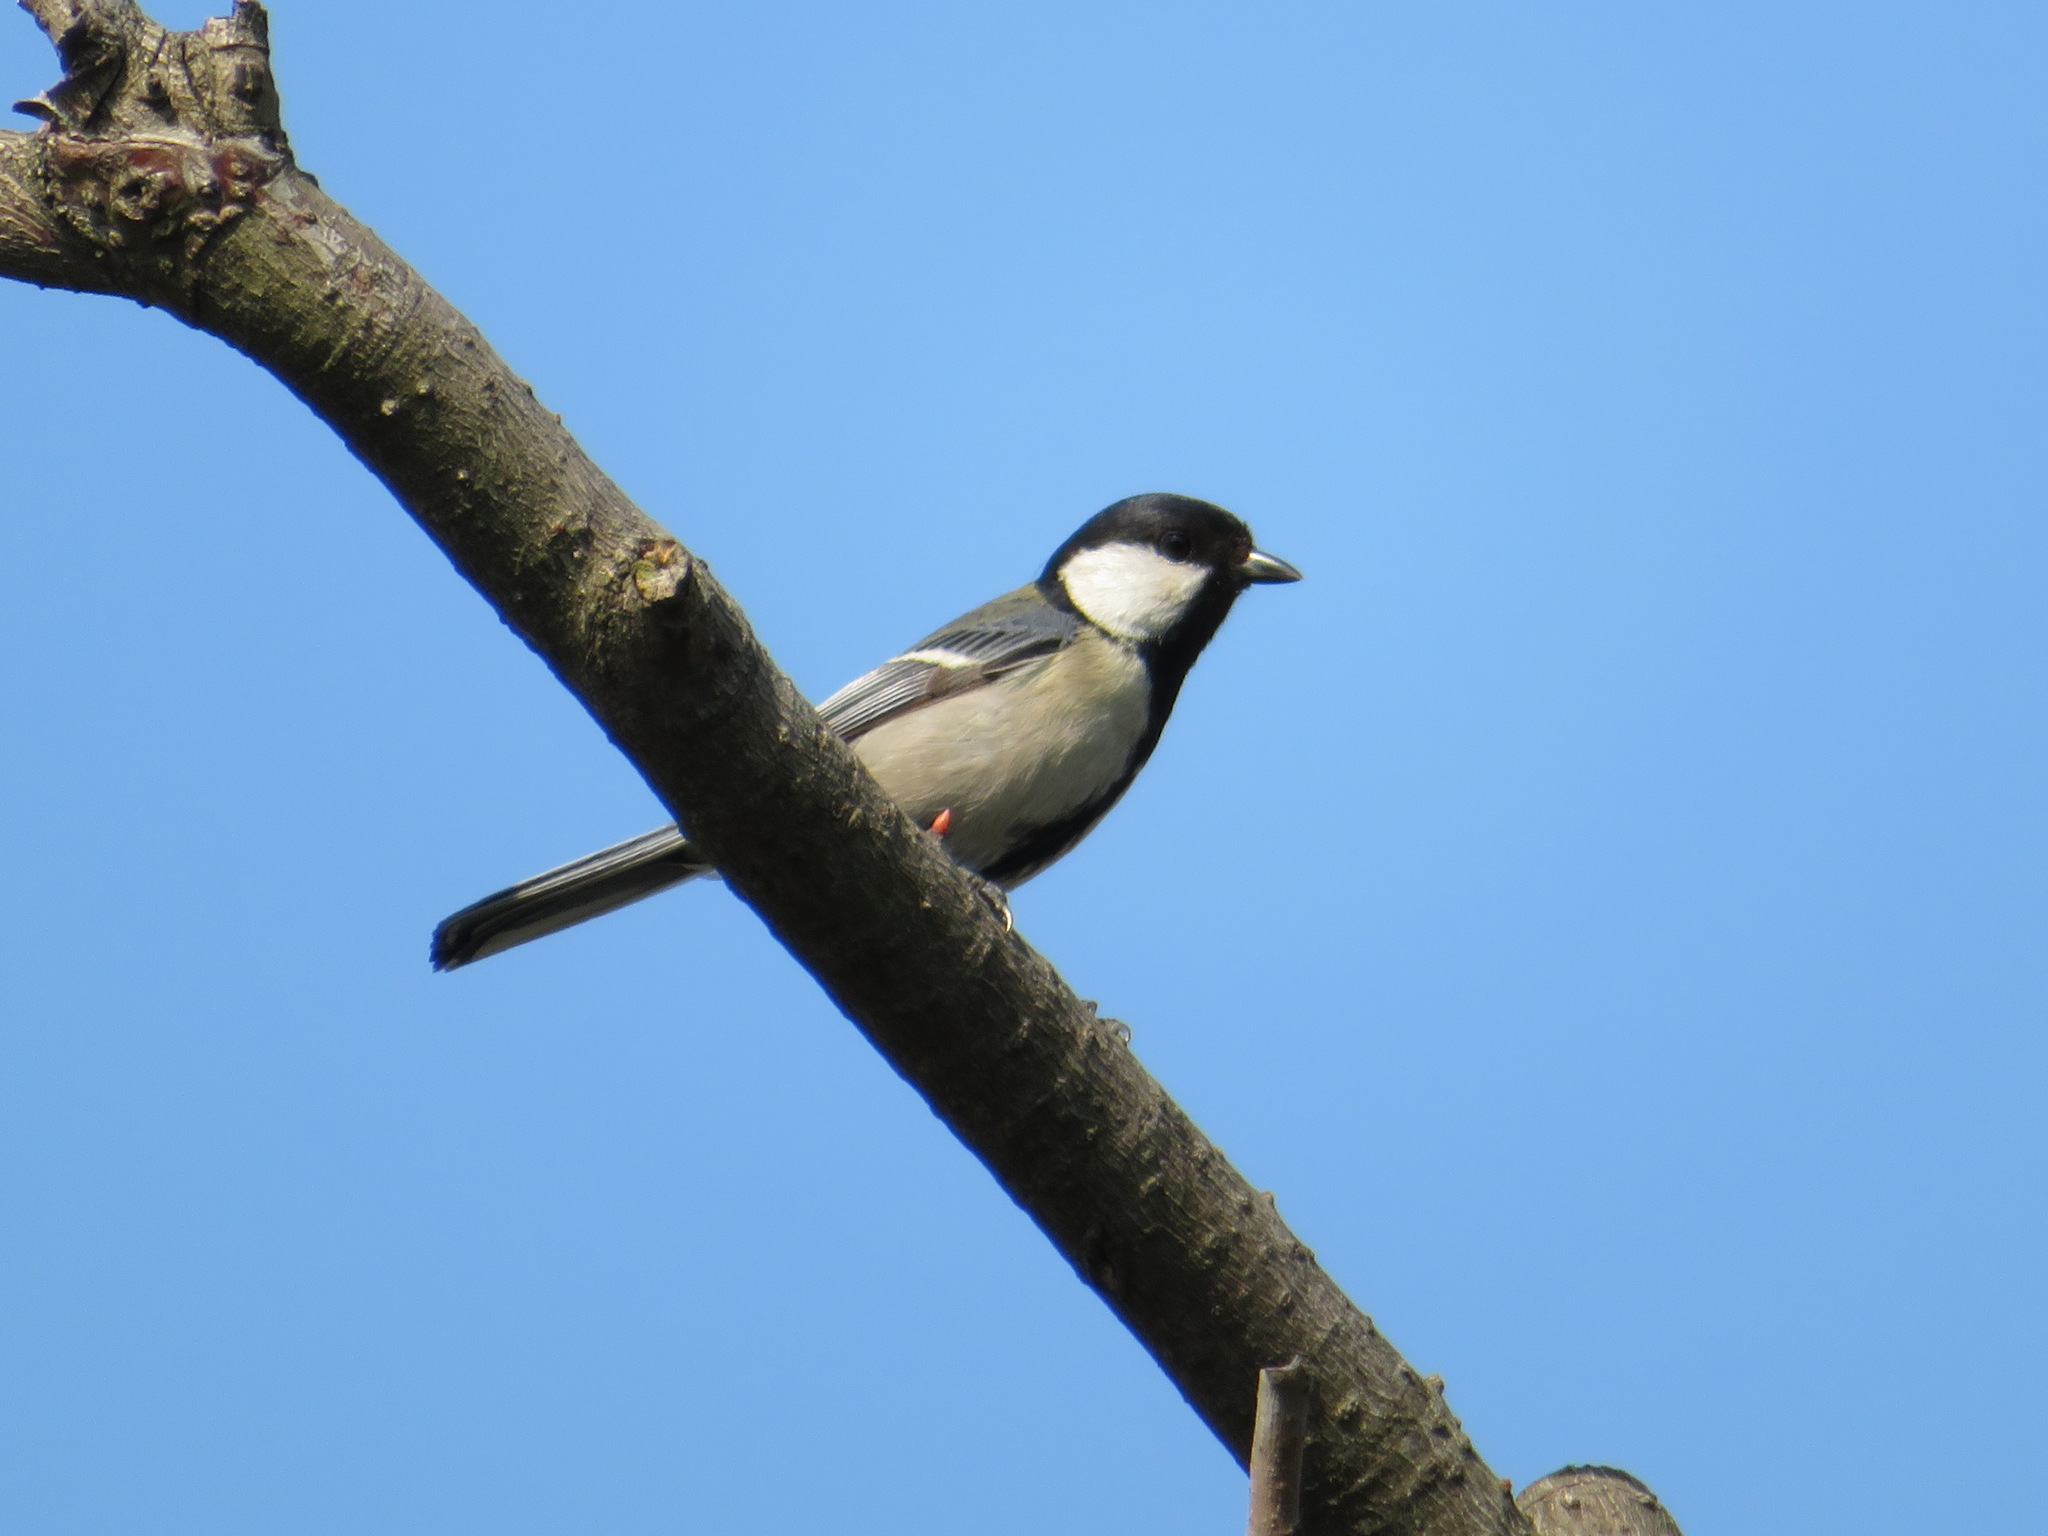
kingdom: Animalia
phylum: Chordata
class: Aves
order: Passeriformes
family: Paridae
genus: Parus
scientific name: Parus minor
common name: Japanese tit
